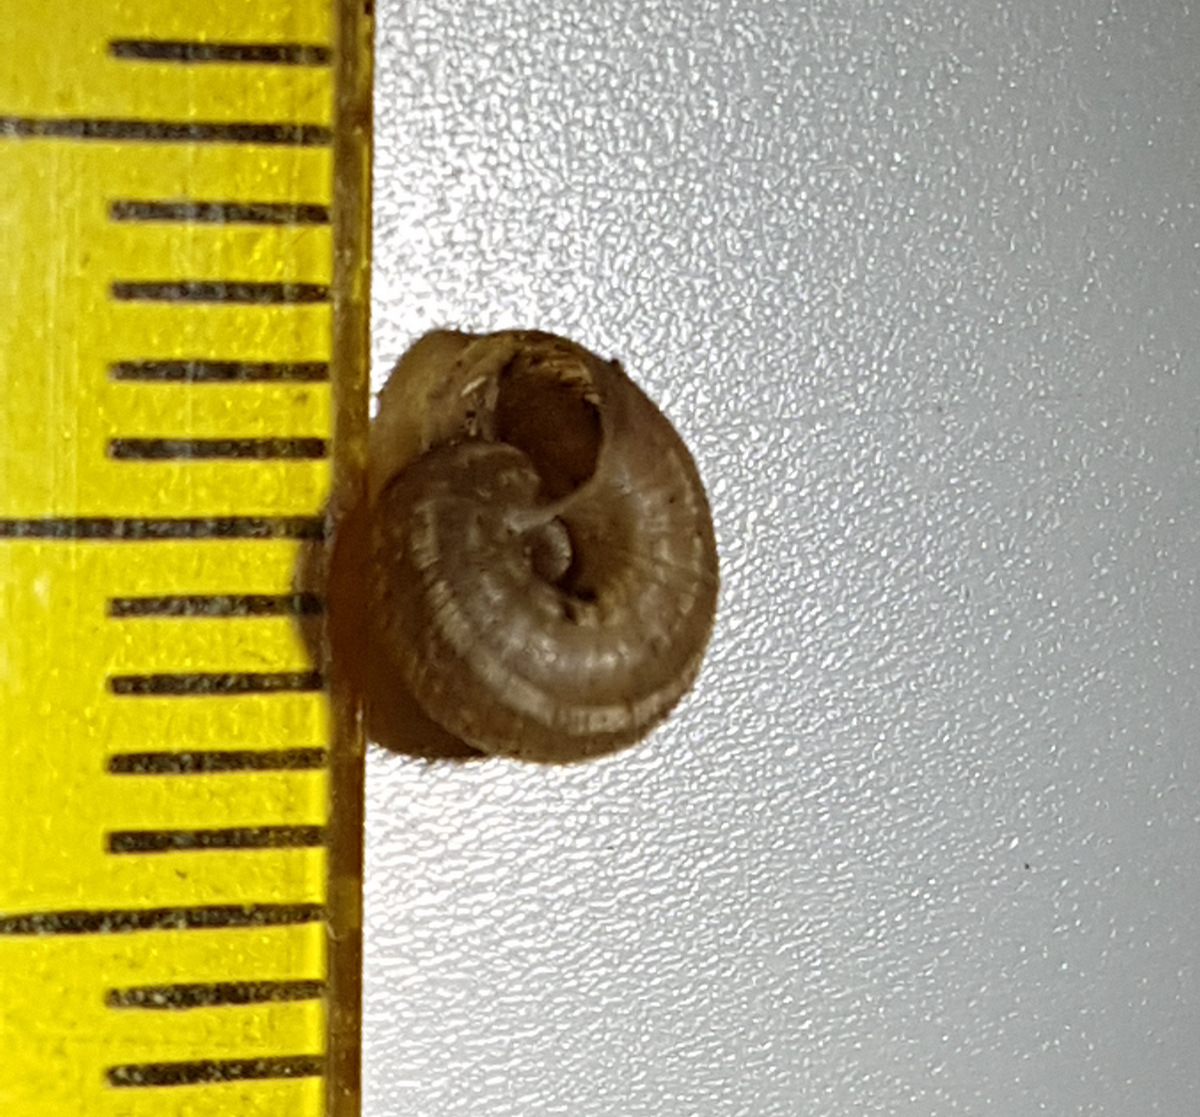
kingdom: Animalia
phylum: Mollusca
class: Gastropoda
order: Stylommatophora
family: Geomitridae
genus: Xerotricha
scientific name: Xerotricha conspurcata
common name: Snail
